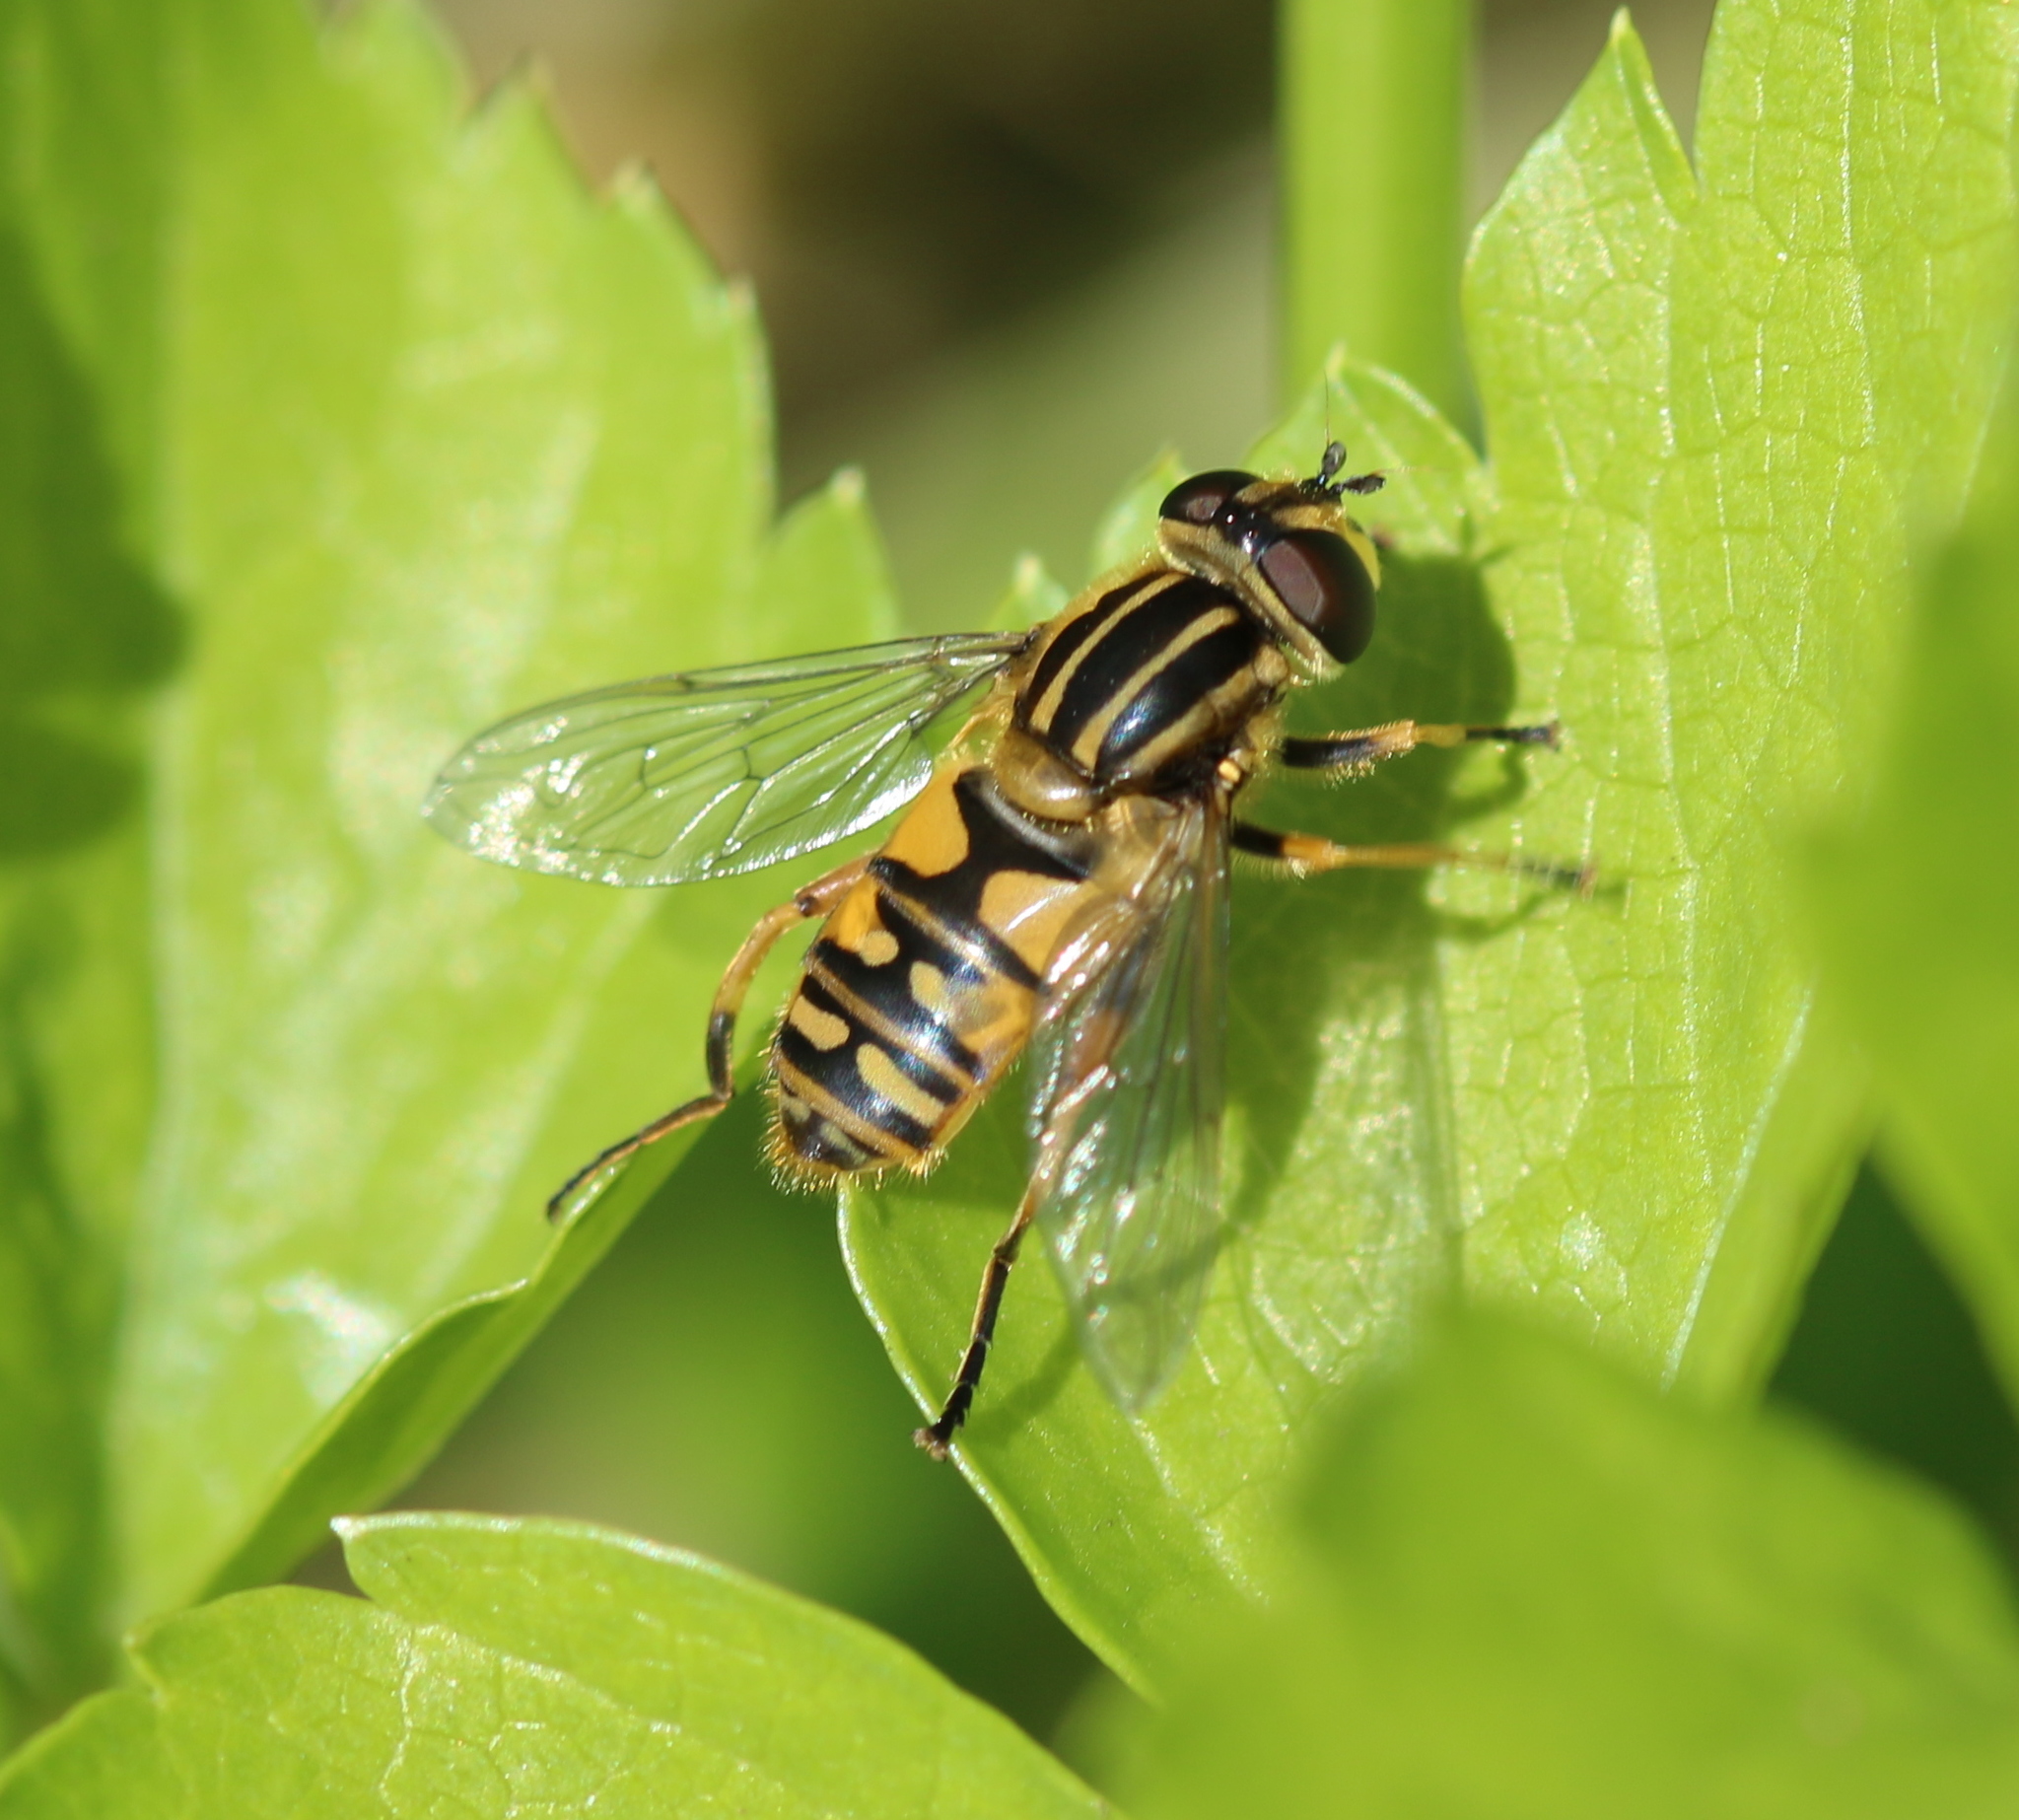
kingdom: Animalia
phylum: Arthropoda
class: Insecta
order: Diptera
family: Syrphidae
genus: Helophilus
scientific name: Helophilus pendulus
